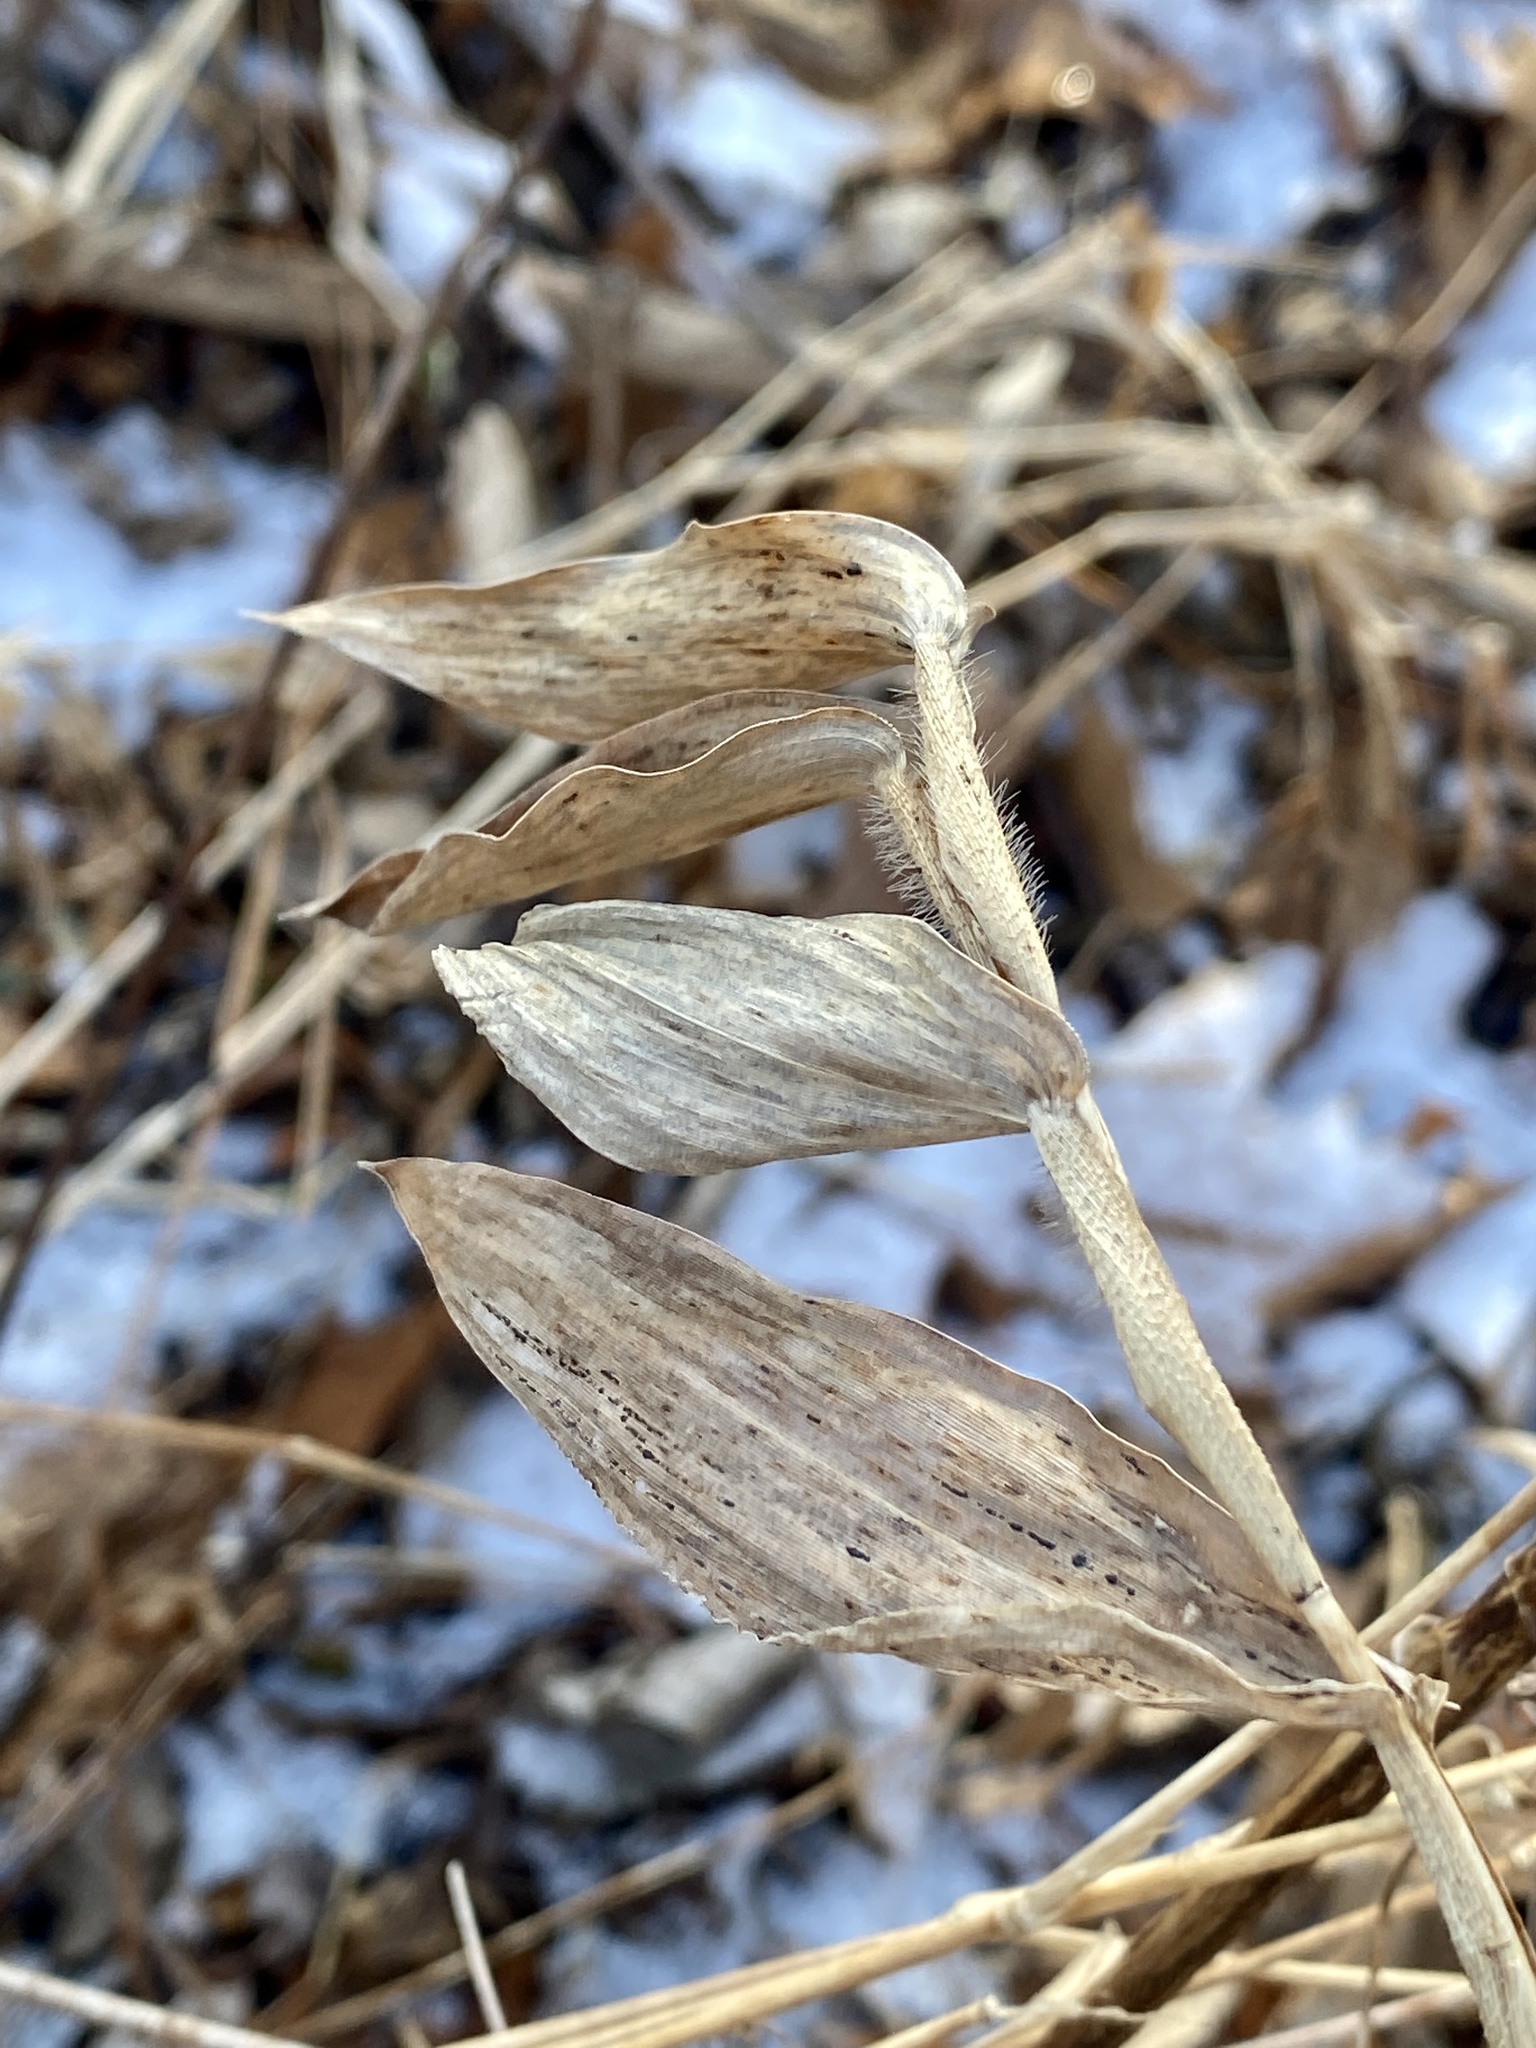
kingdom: Plantae
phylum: Tracheophyta
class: Liliopsida
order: Poales
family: Poaceae
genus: Dichanthelium
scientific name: Dichanthelium clandestinum
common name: Deer-tongue grass
